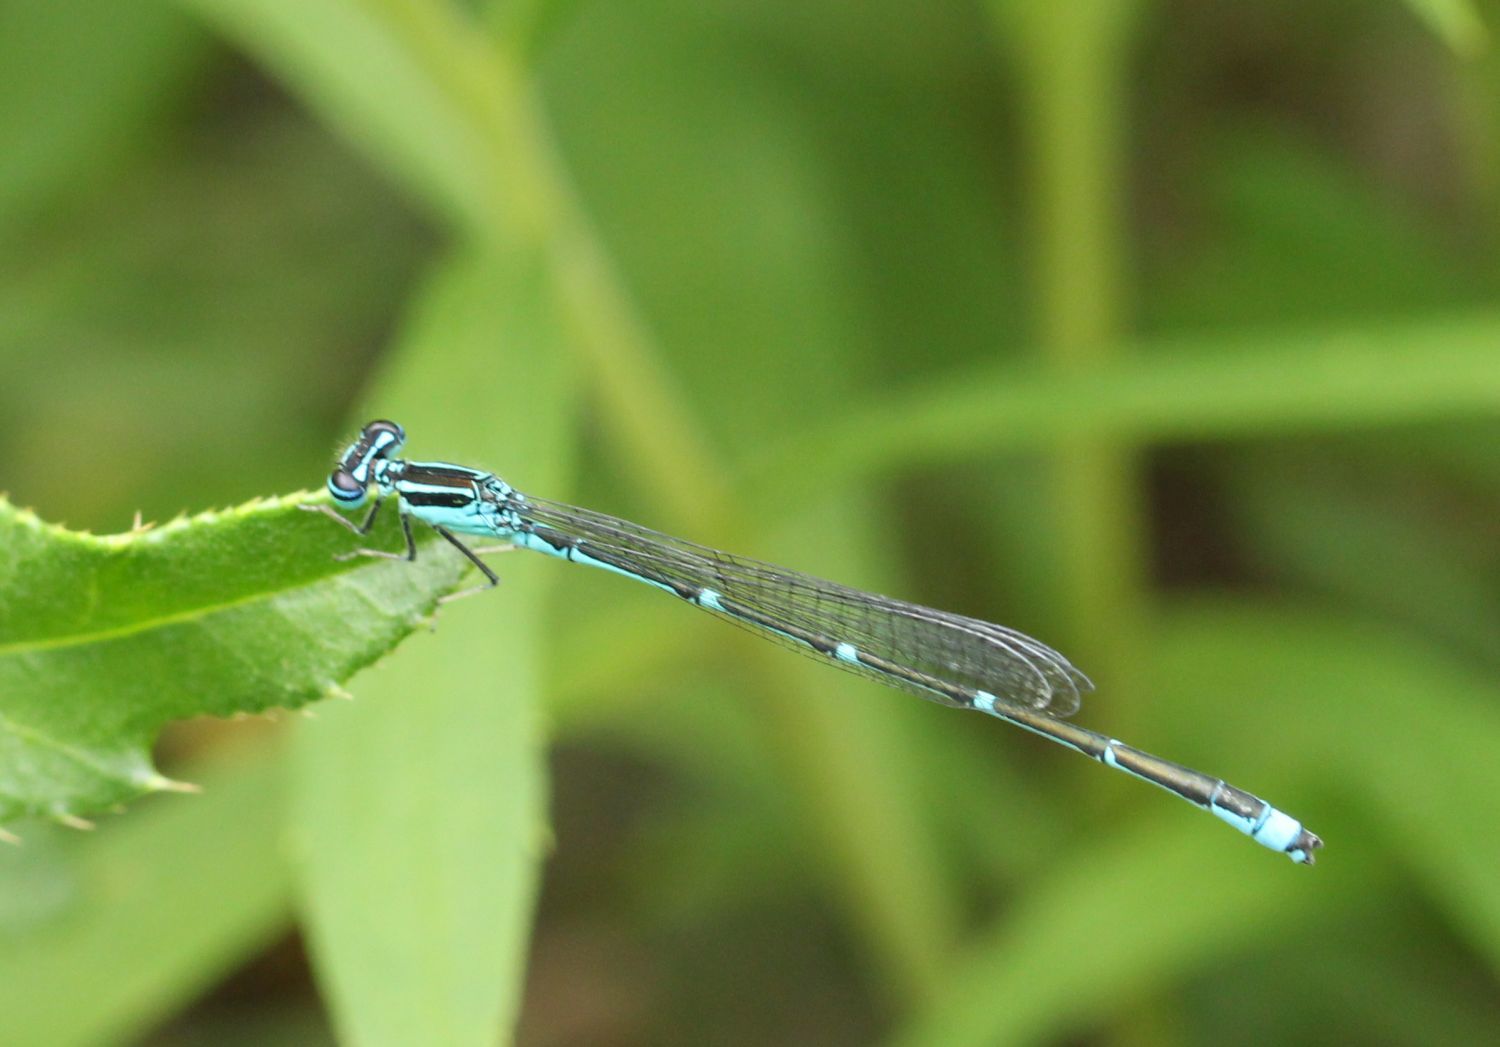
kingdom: Animalia
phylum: Arthropoda
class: Insecta
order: Odonata
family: Coenagrionidae
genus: Enallagma
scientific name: Enallagma exsulans
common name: Stream bluet
